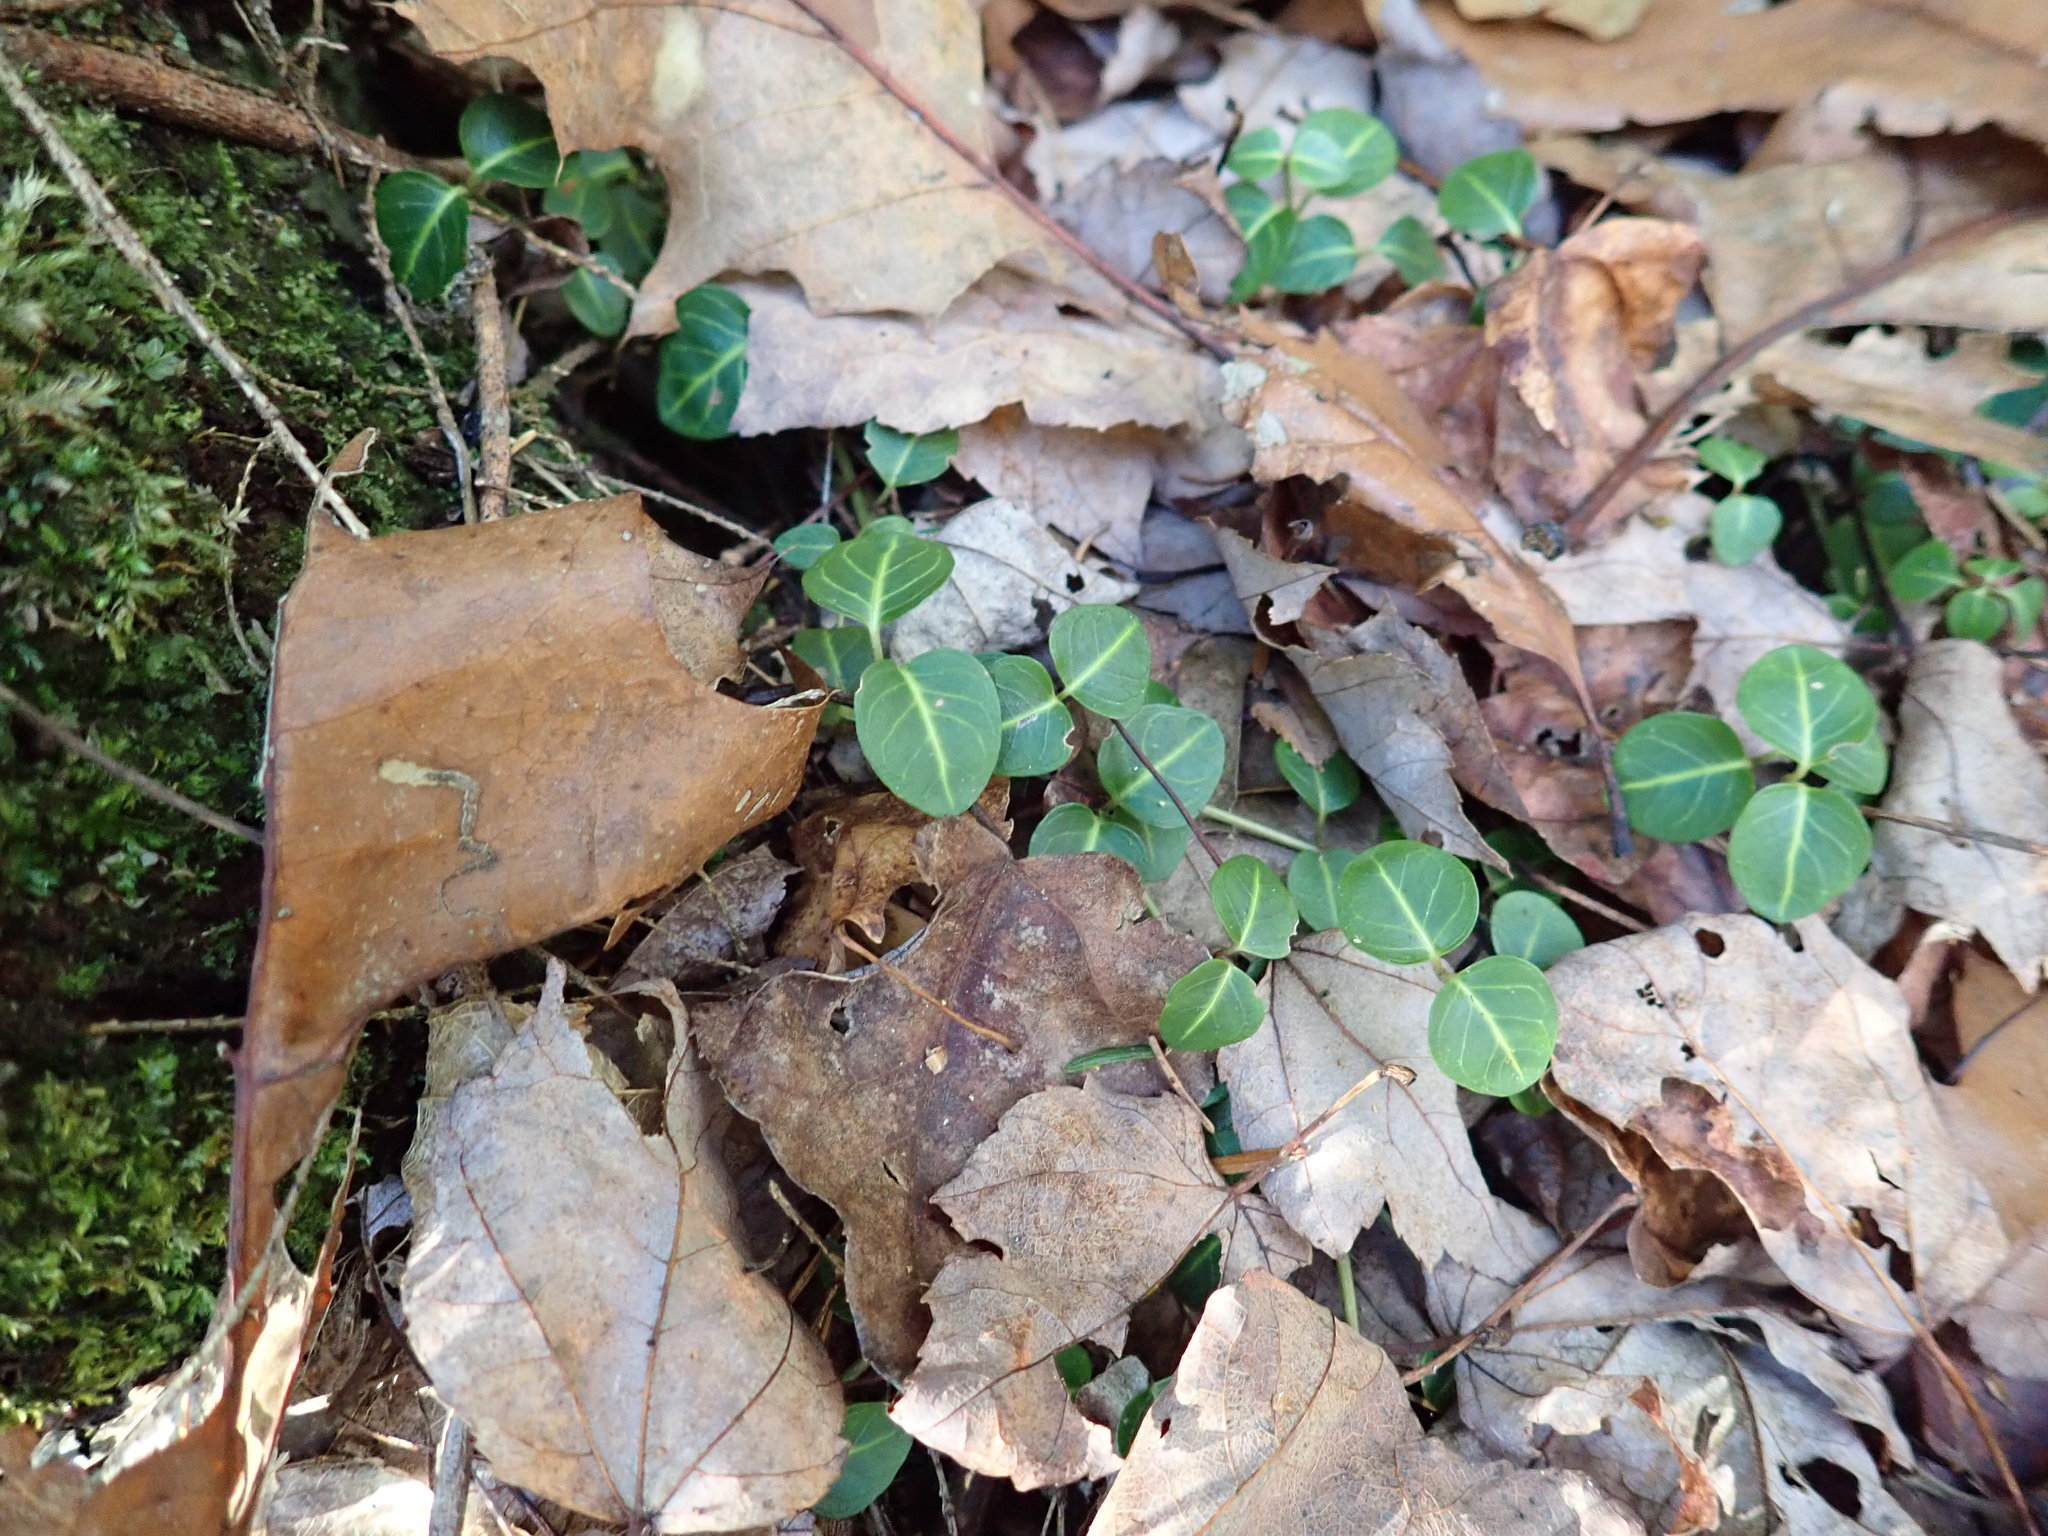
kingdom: Plantae
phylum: Tracheophyta
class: Magnoliopsida
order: Gentianales
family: Rubiaceae
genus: Mitchella
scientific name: Mitchella repens
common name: Partridge-berry
